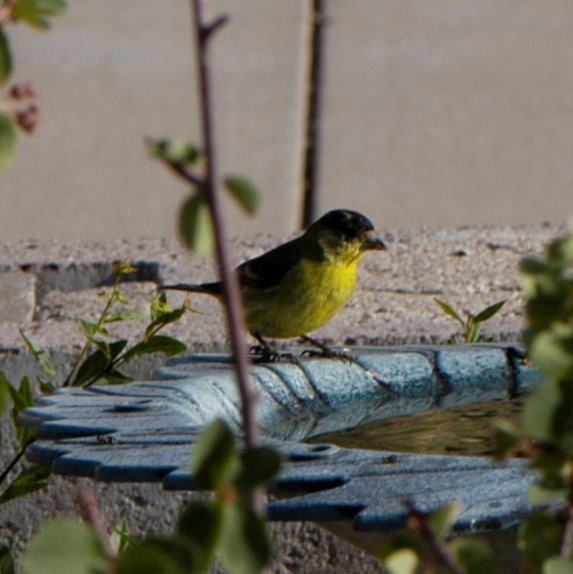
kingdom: Animalia
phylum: Chordata
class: Aves
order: Passeriformes
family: Fringillidae
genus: Spinus
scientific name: Spinus psaltria
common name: Lesser goldfinch
